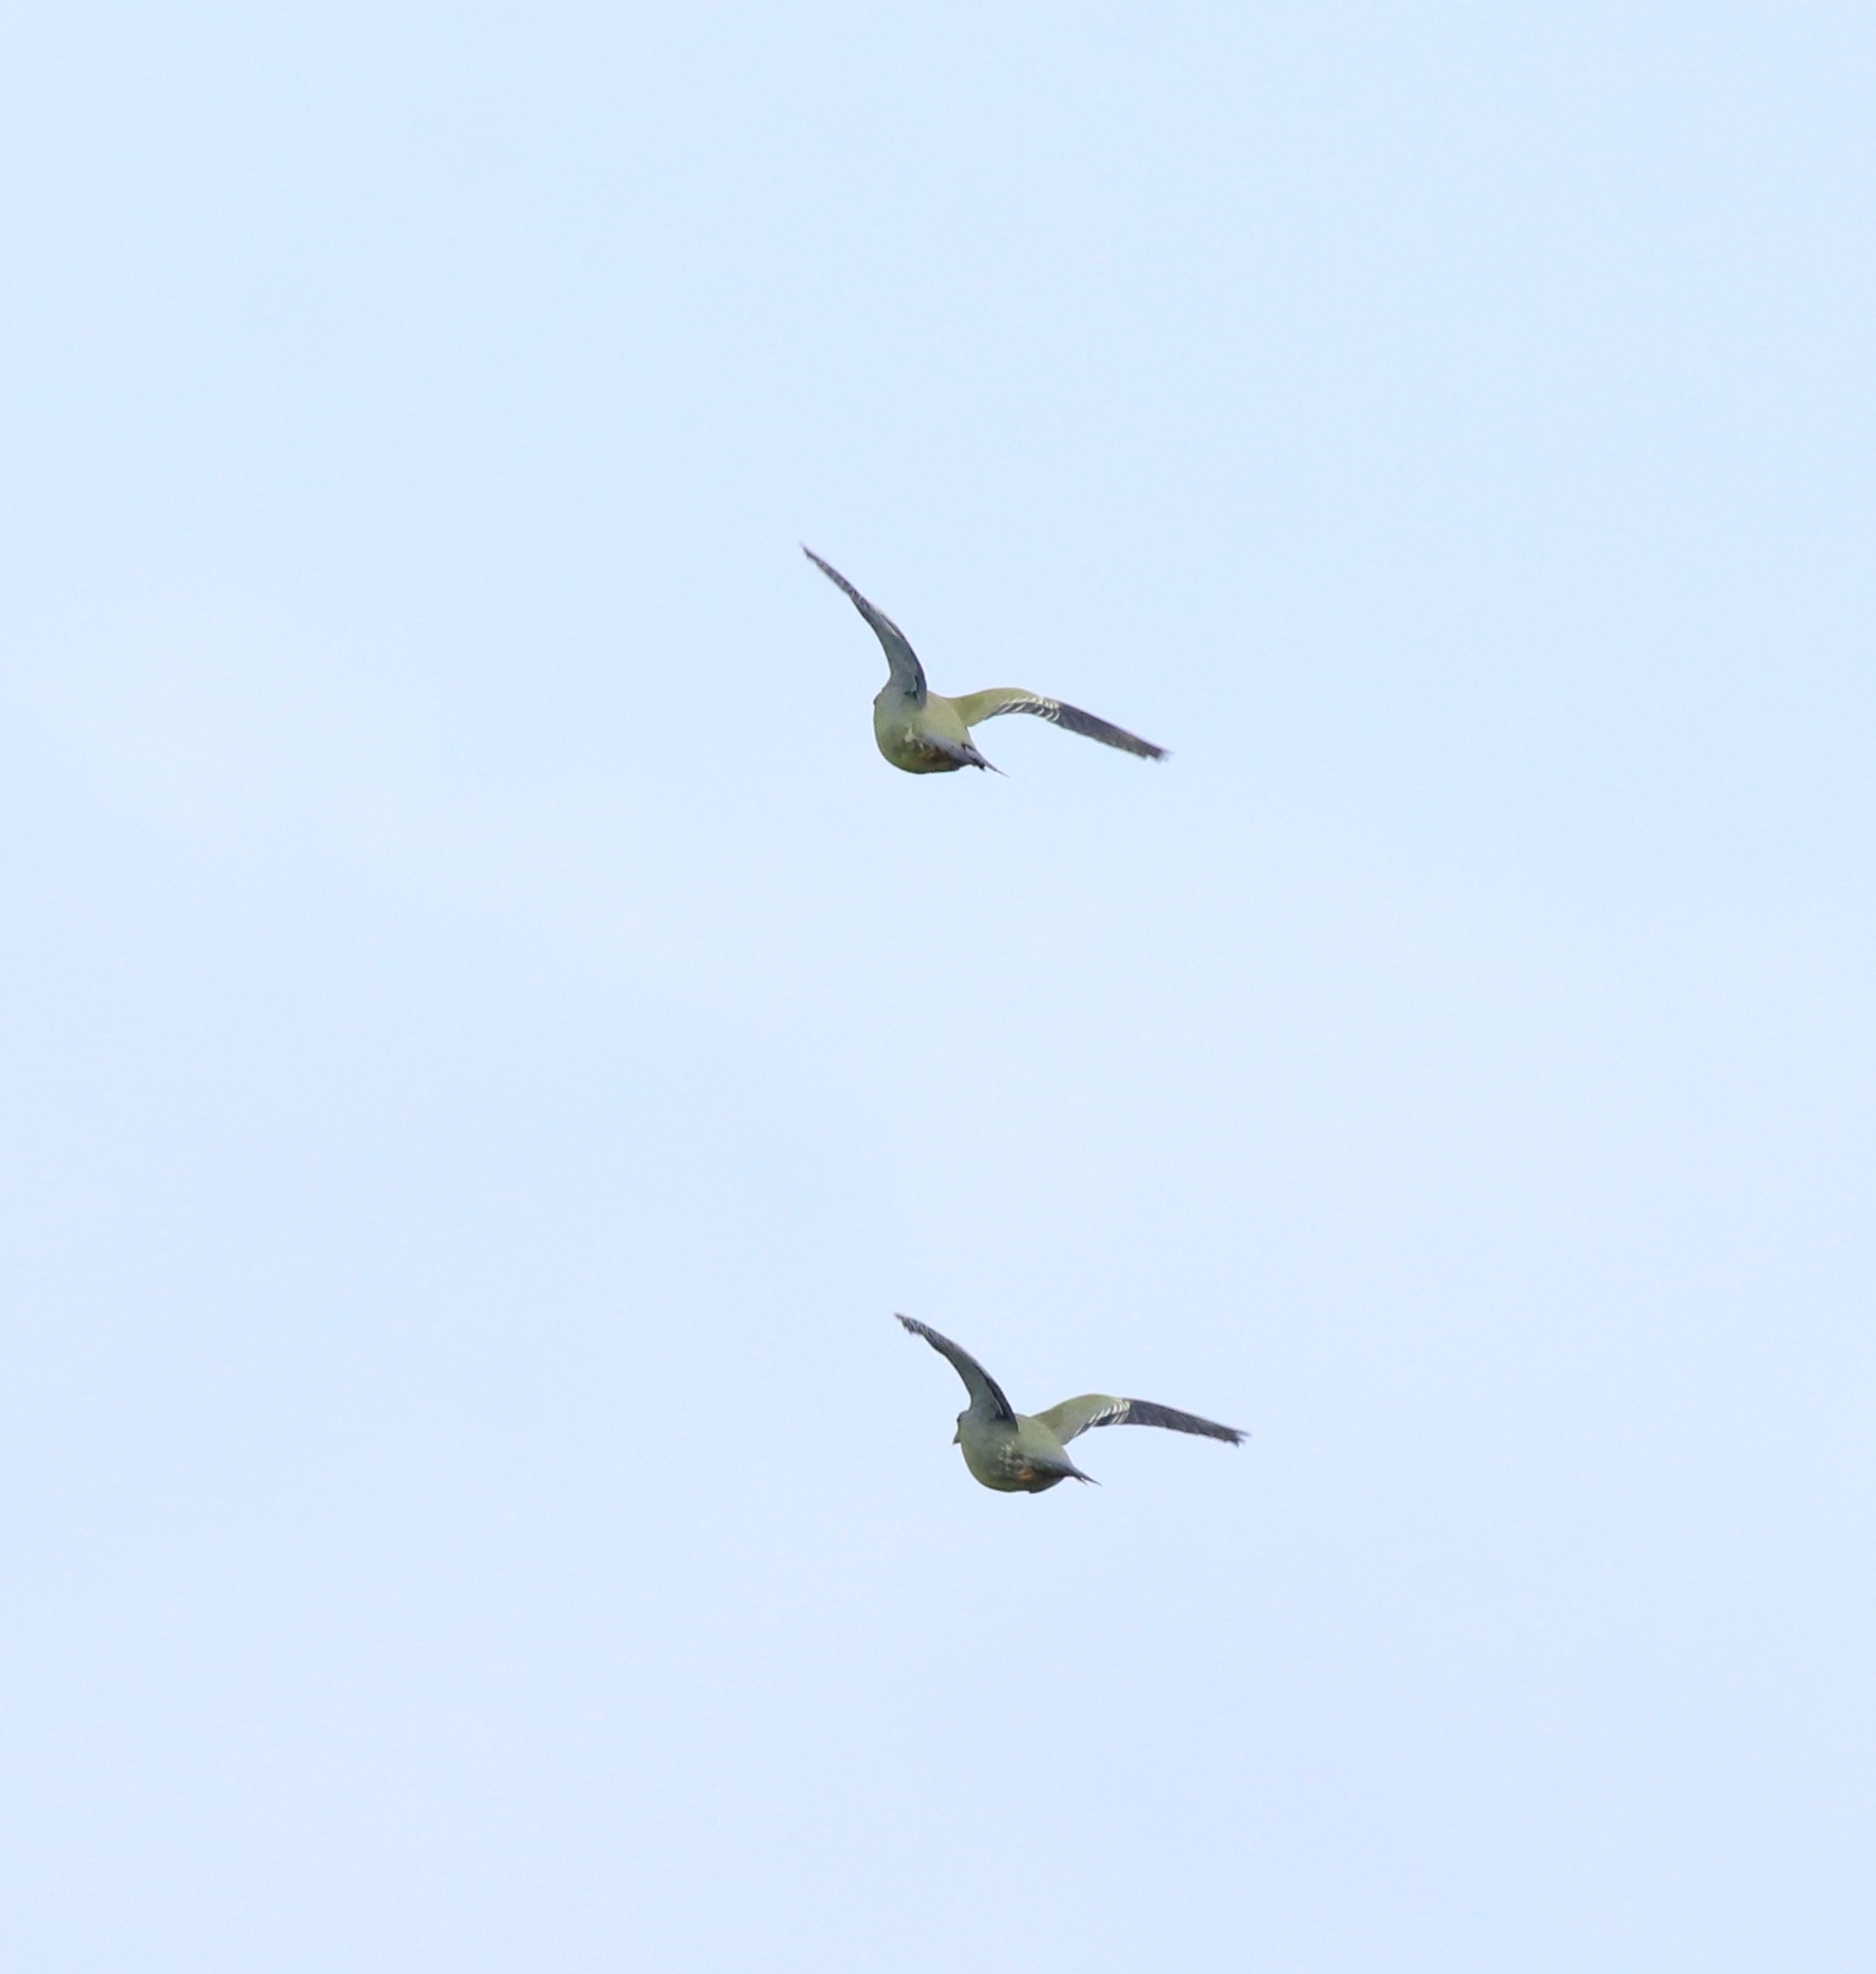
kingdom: Animalia
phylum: Chordata
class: Aves
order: Columbiformes
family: Columbidae
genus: Treron
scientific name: Treron phoenicopterus
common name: Yellow-footed green pigeon
